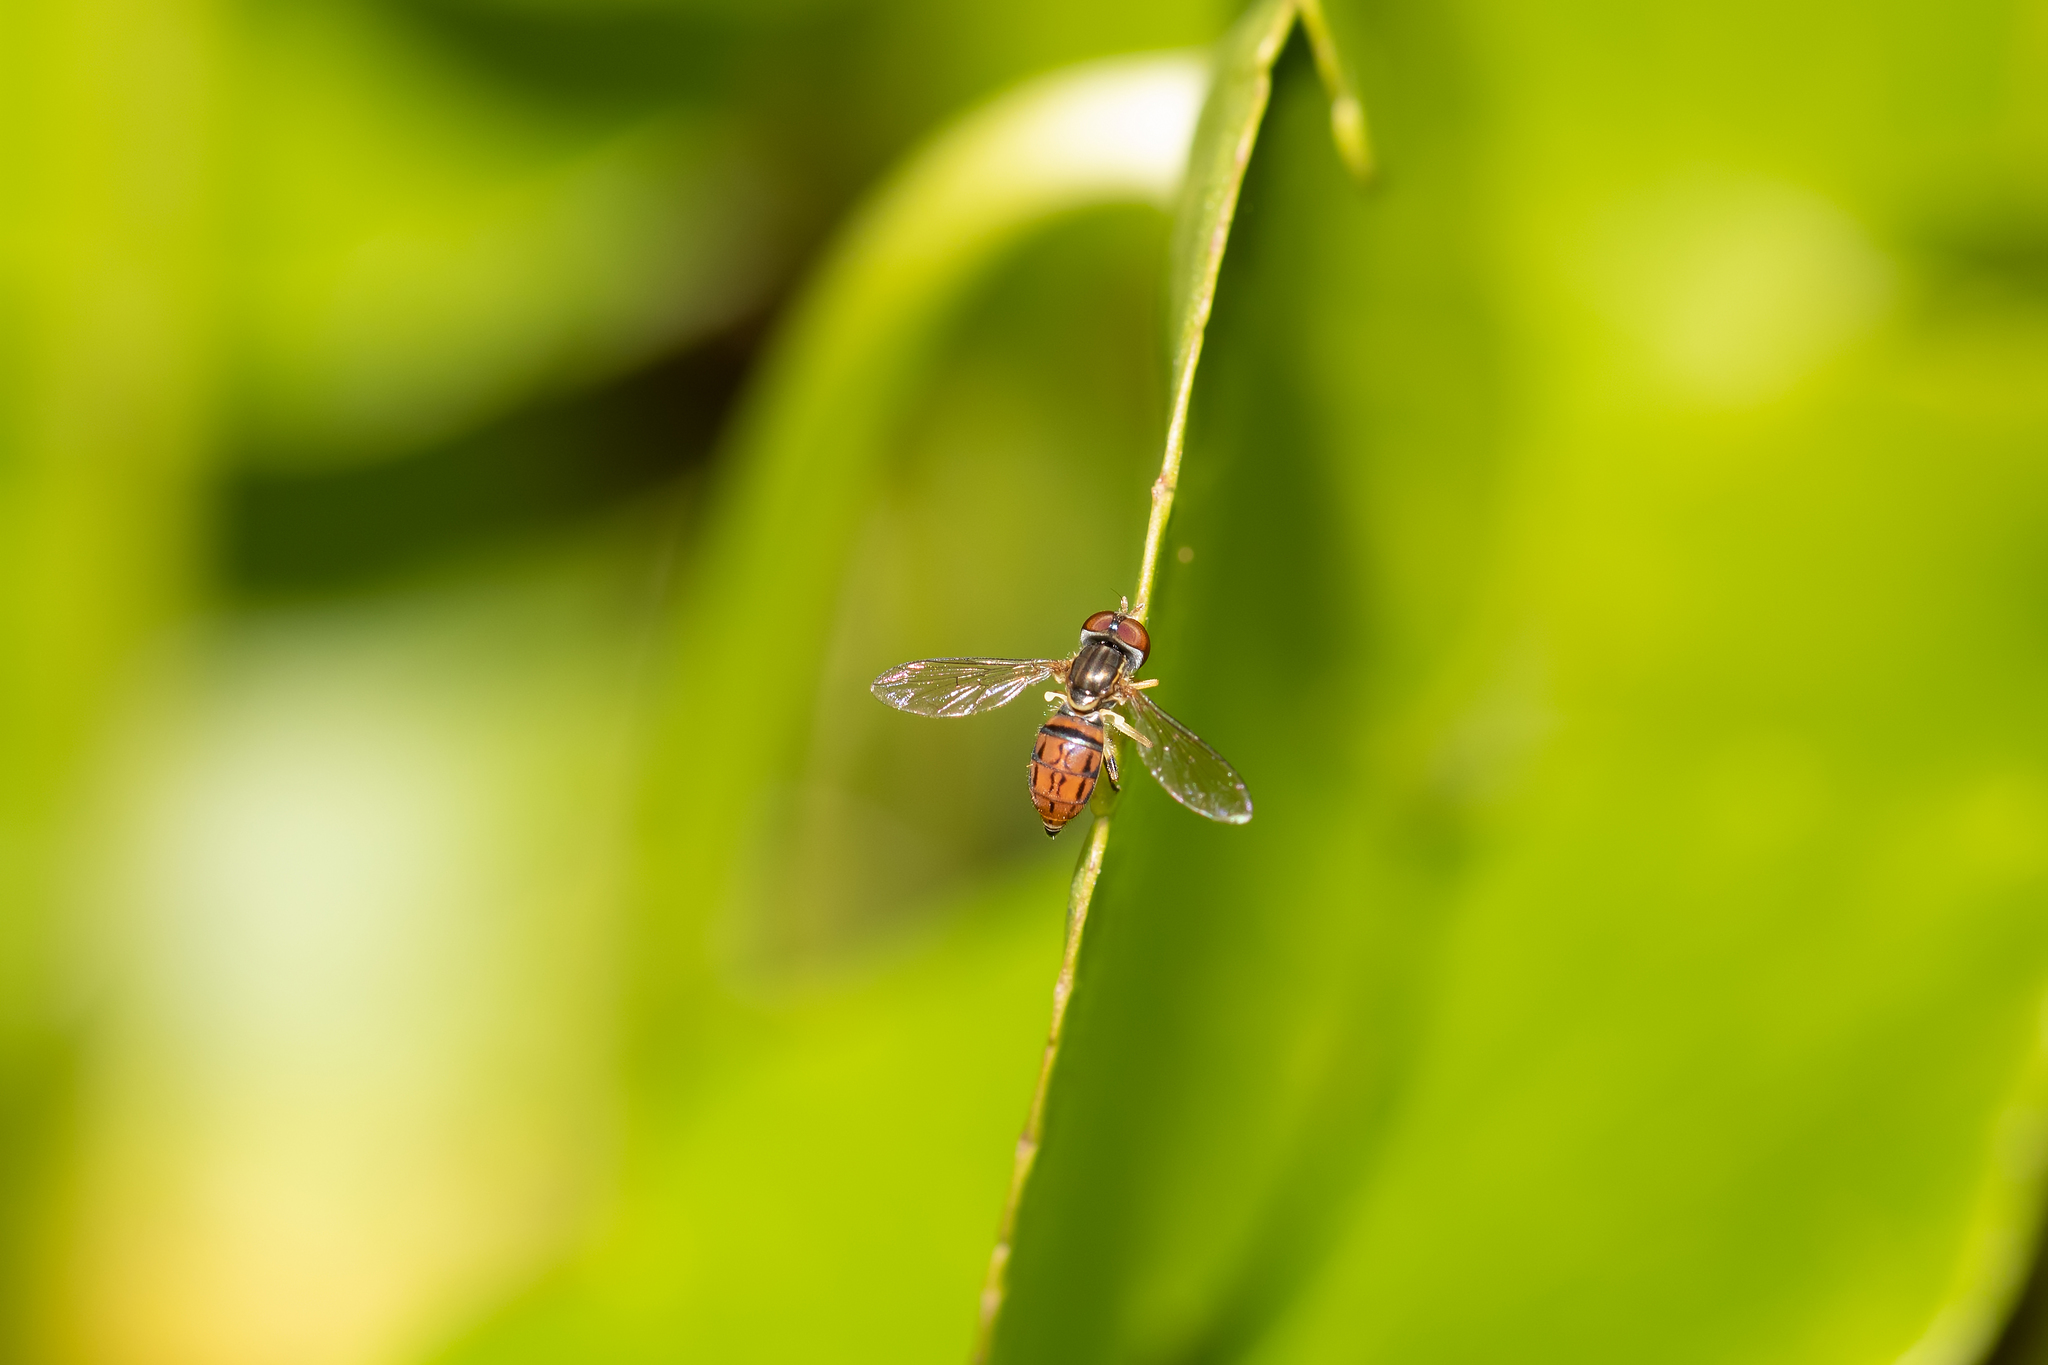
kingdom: Animalia
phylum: Arthropoda
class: Insecta
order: Diptera
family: Syrphidae
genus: Toxomerus
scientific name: Toxomerus boscii
